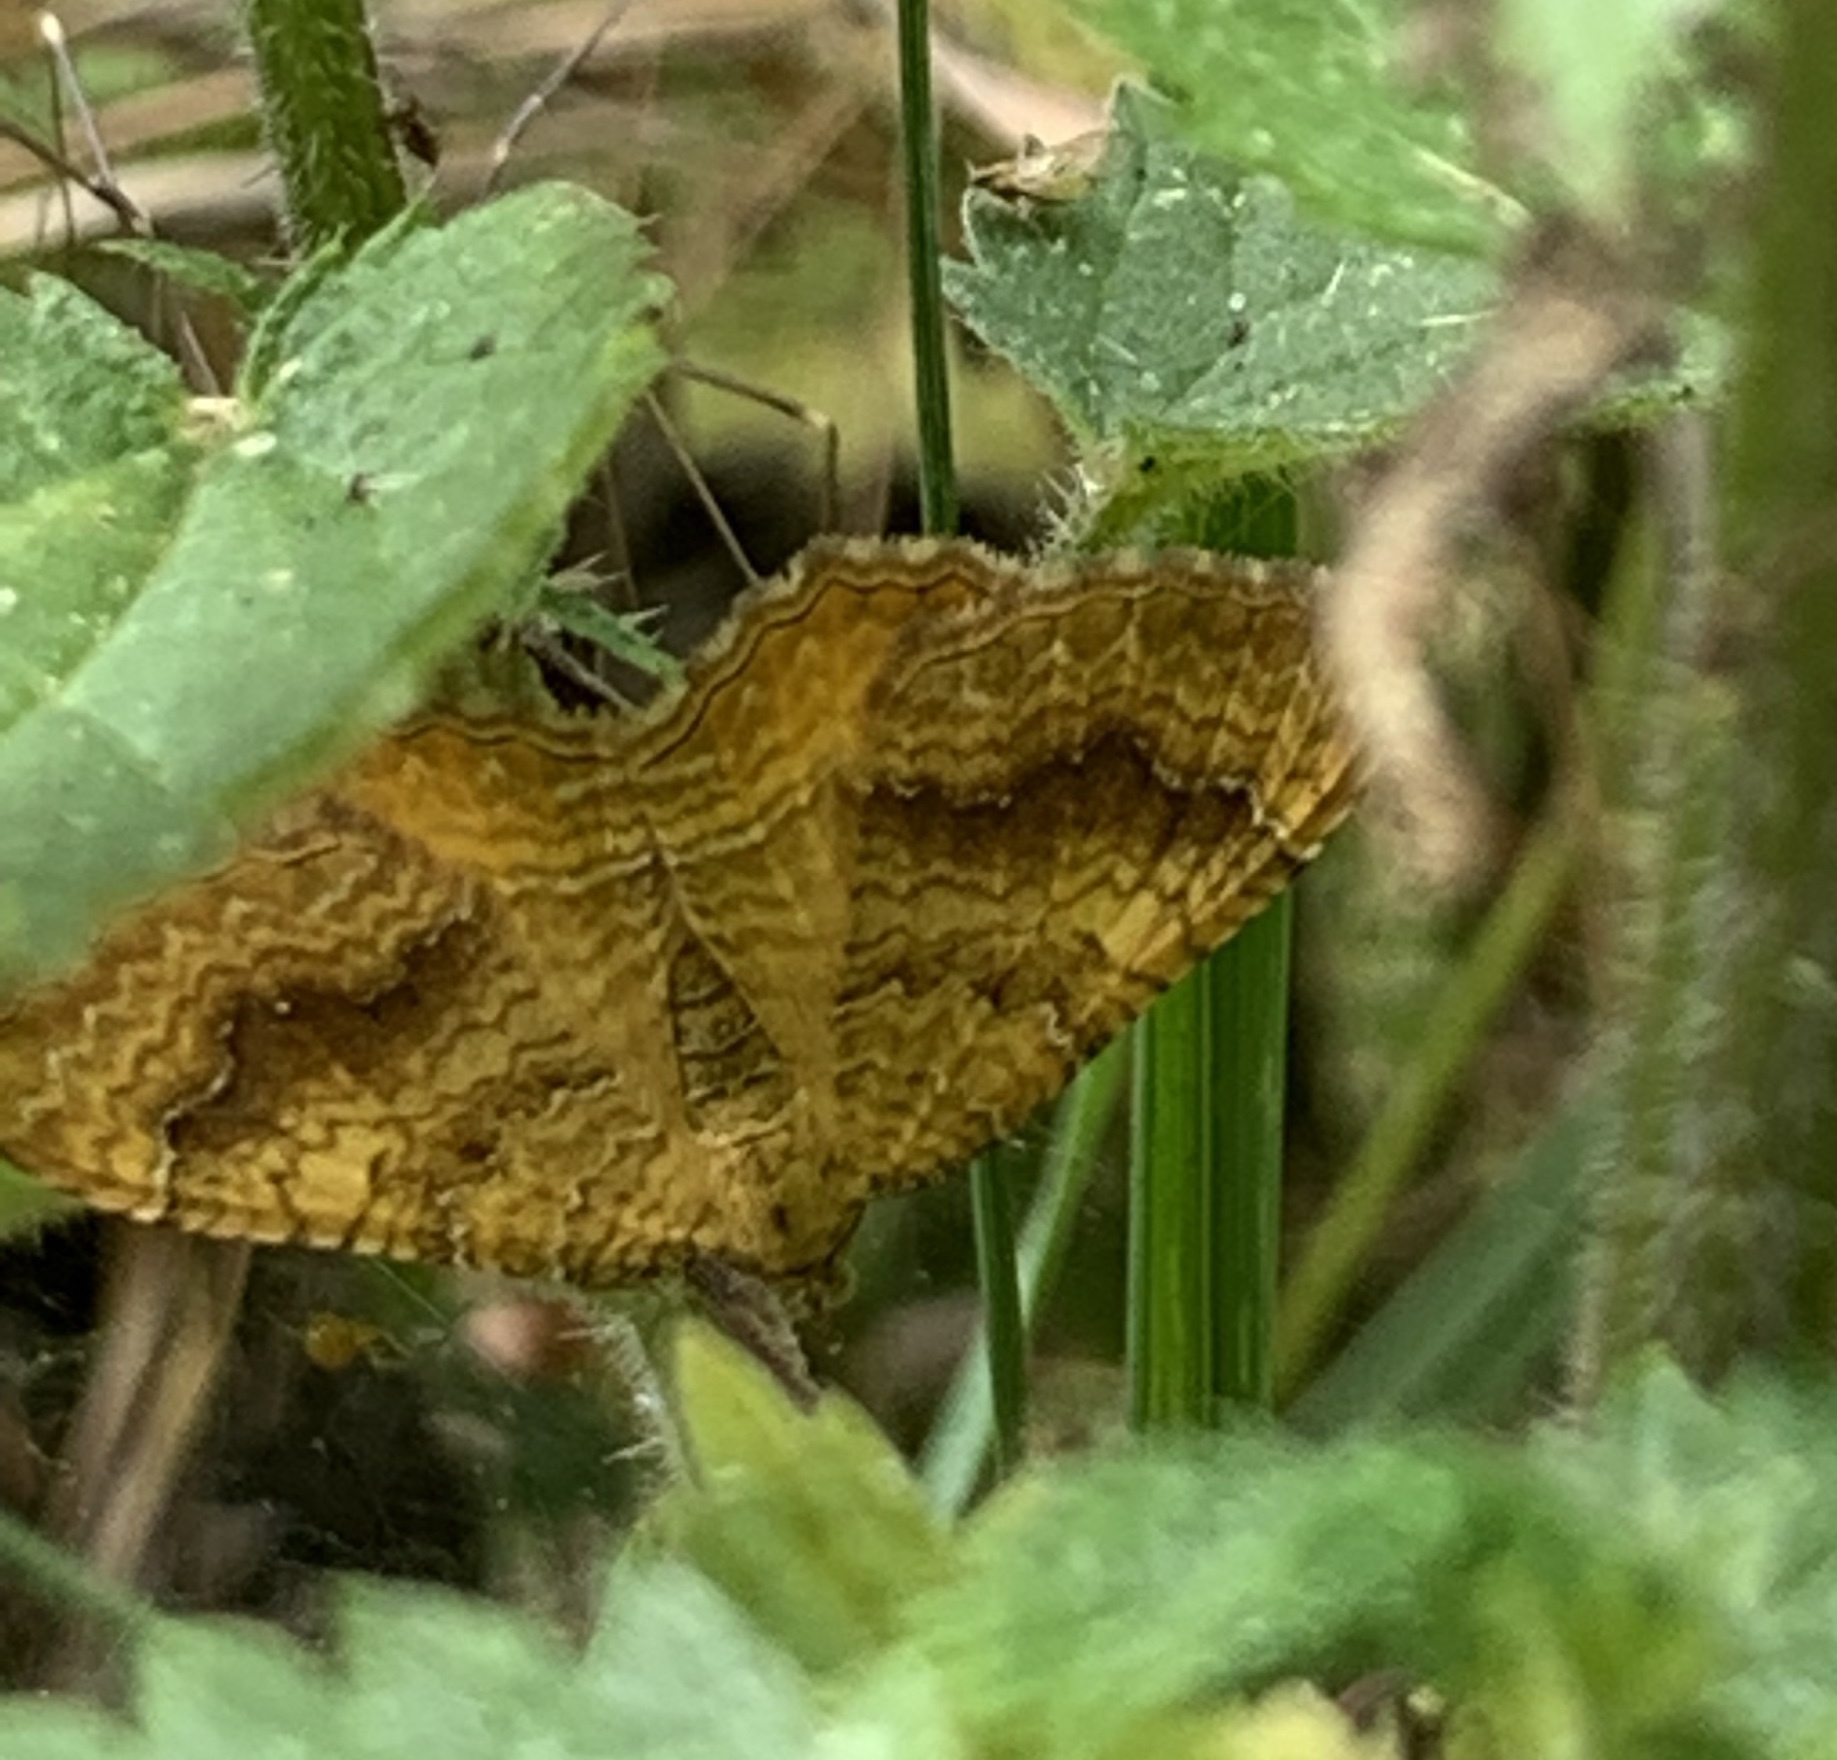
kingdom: Animalia
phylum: Arthropoda
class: Insecta
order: Lepidoptera
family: Geometridae
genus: Camptogramma
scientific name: Camptogramma bilineata
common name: Yellow shell
